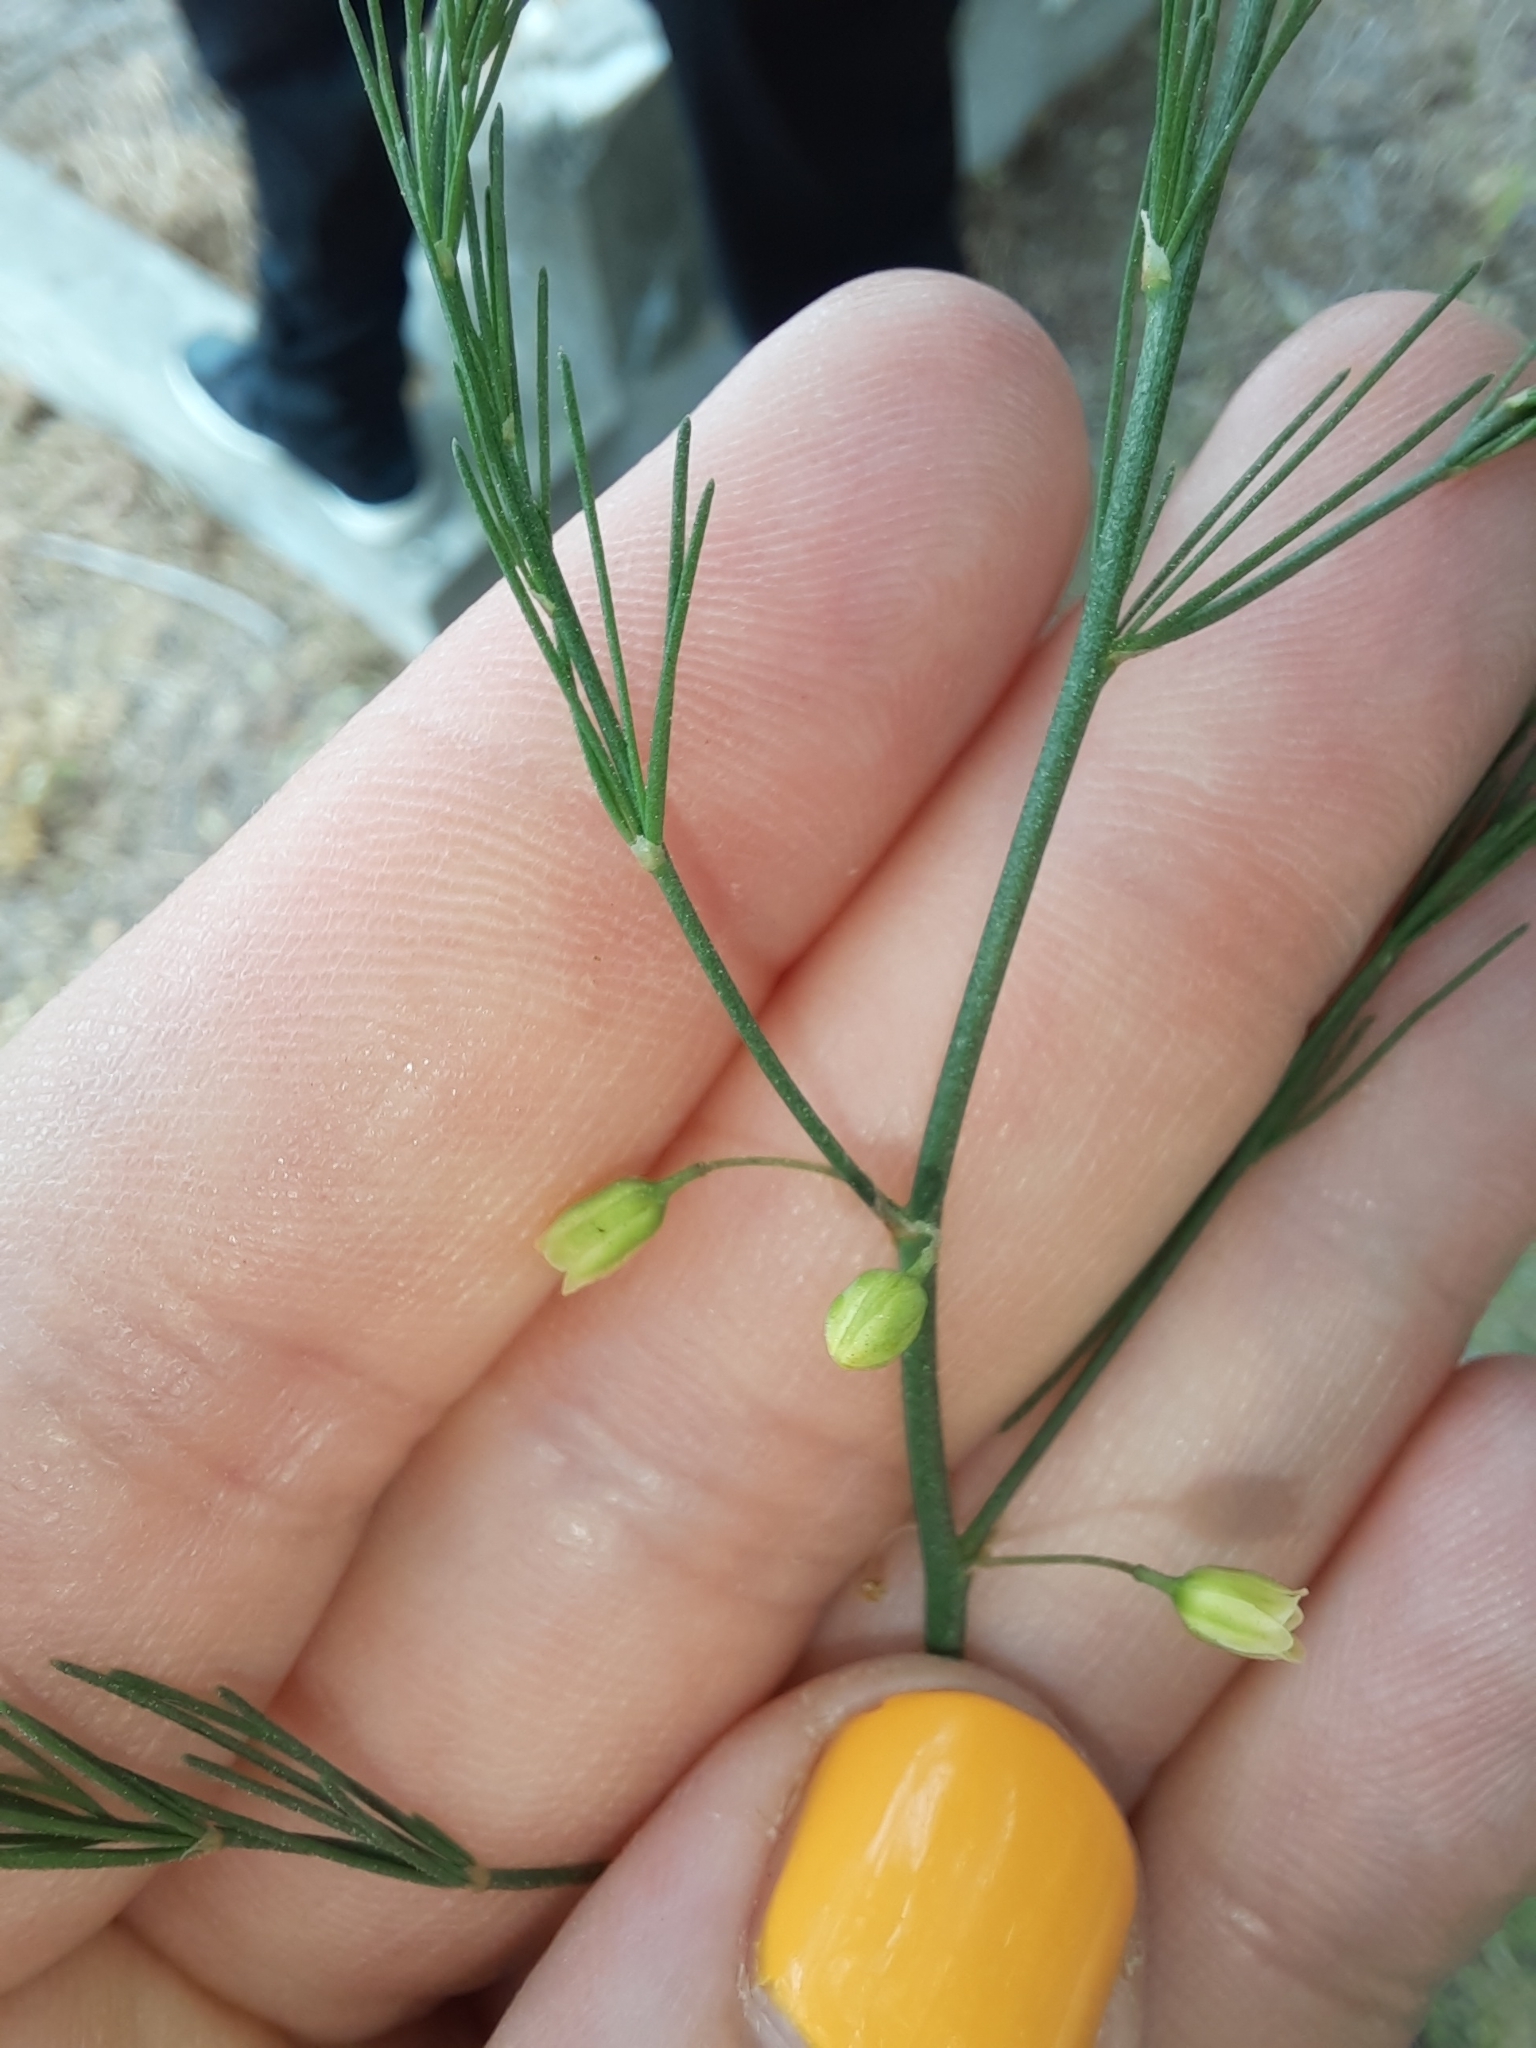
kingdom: Plantae
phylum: Tracheophyta
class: Liliopsida
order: Asparagales
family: Asparagaceae
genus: Asparagus
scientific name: Asparagus officinalis
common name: Garden asparagus
